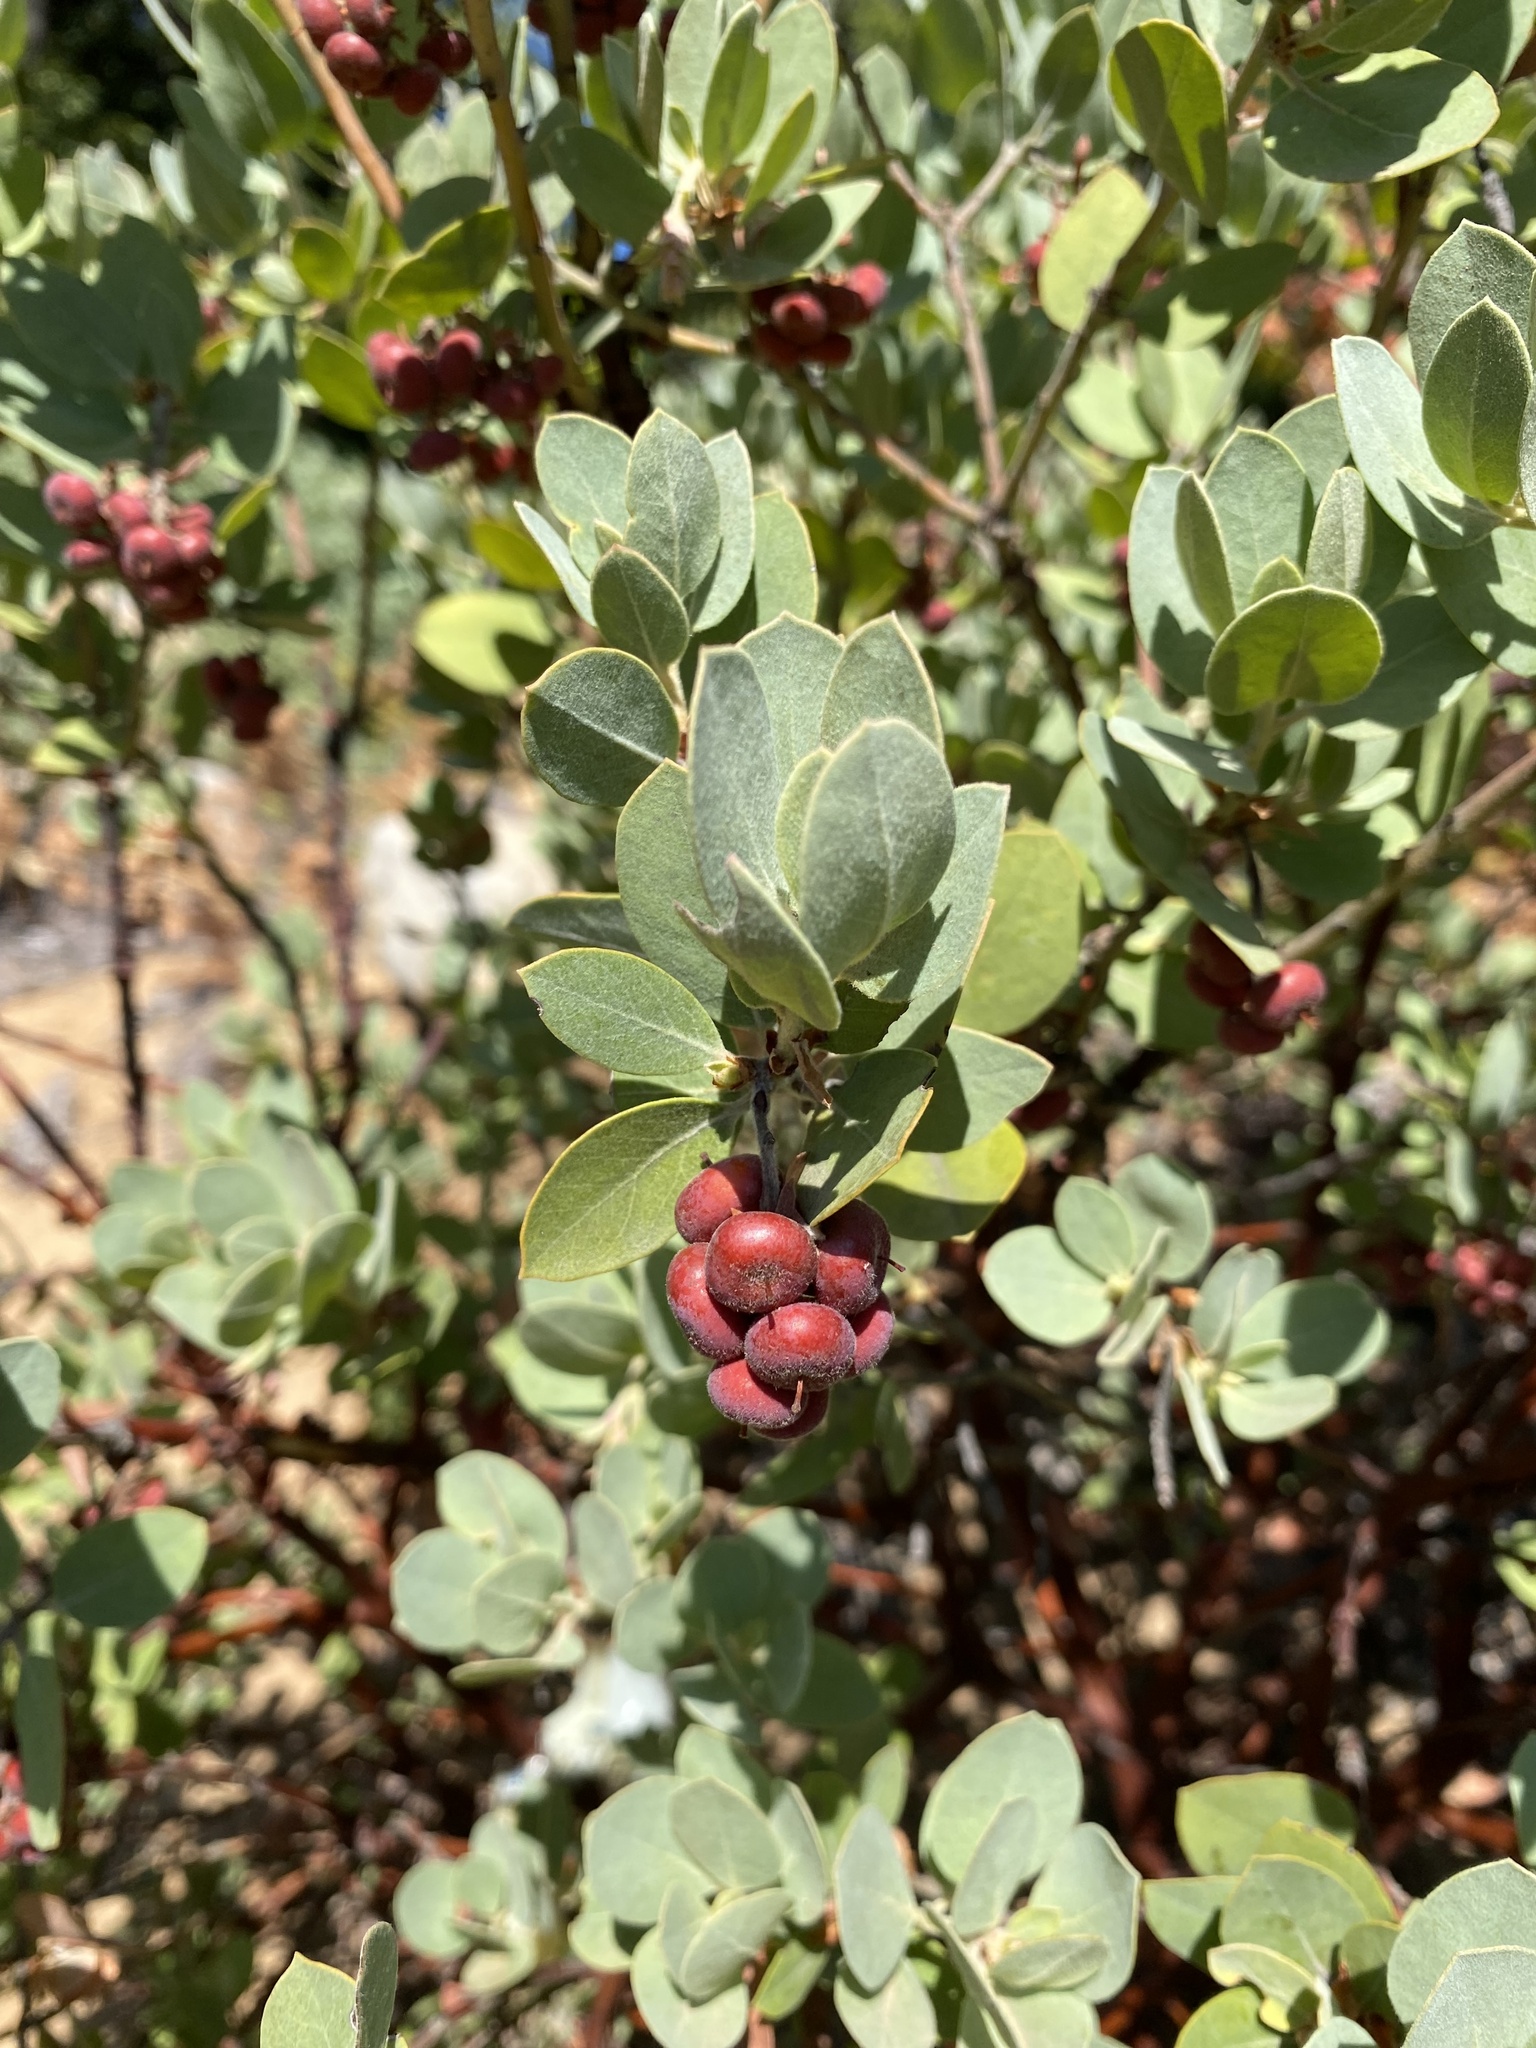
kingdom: Plantae
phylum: Tracheophyta
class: Magnoliopsida
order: Ericales
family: Ericaceae
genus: Arctostaphylos
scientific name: Arctostaphylos columbiana
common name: Bristly bearberry
